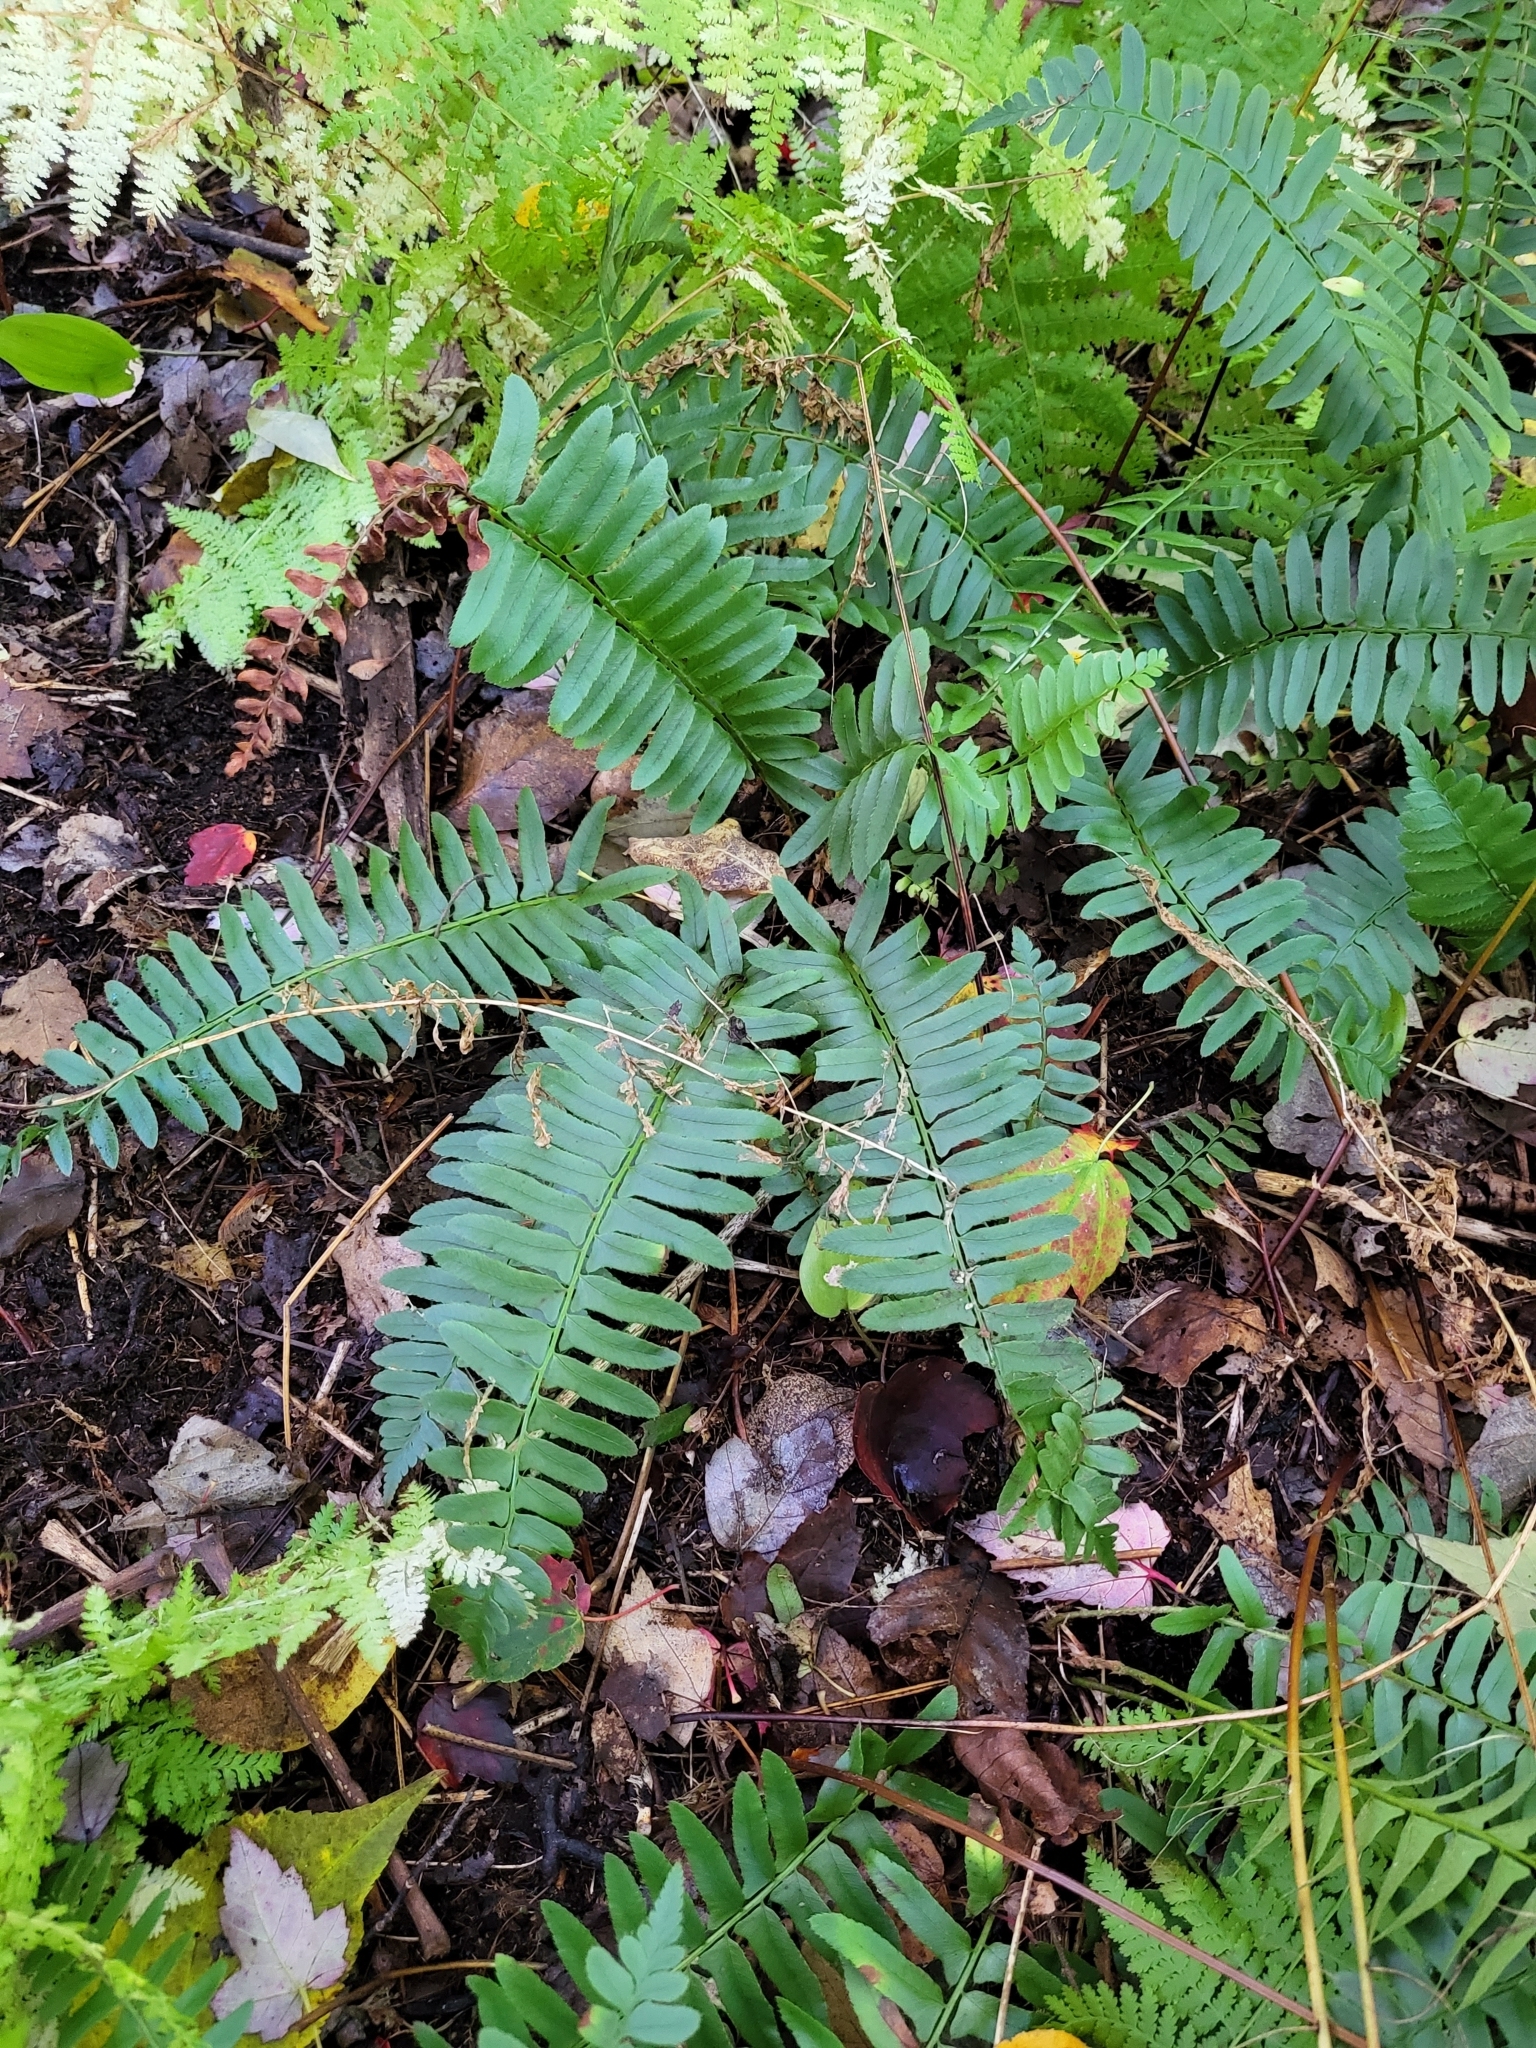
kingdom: Plantae
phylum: Tracheophyta
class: Polypodiopsida
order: Polypodiales
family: Dryopteridaceae
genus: Polystichum
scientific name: Polystichum acrostichoides
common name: Christmas fern
